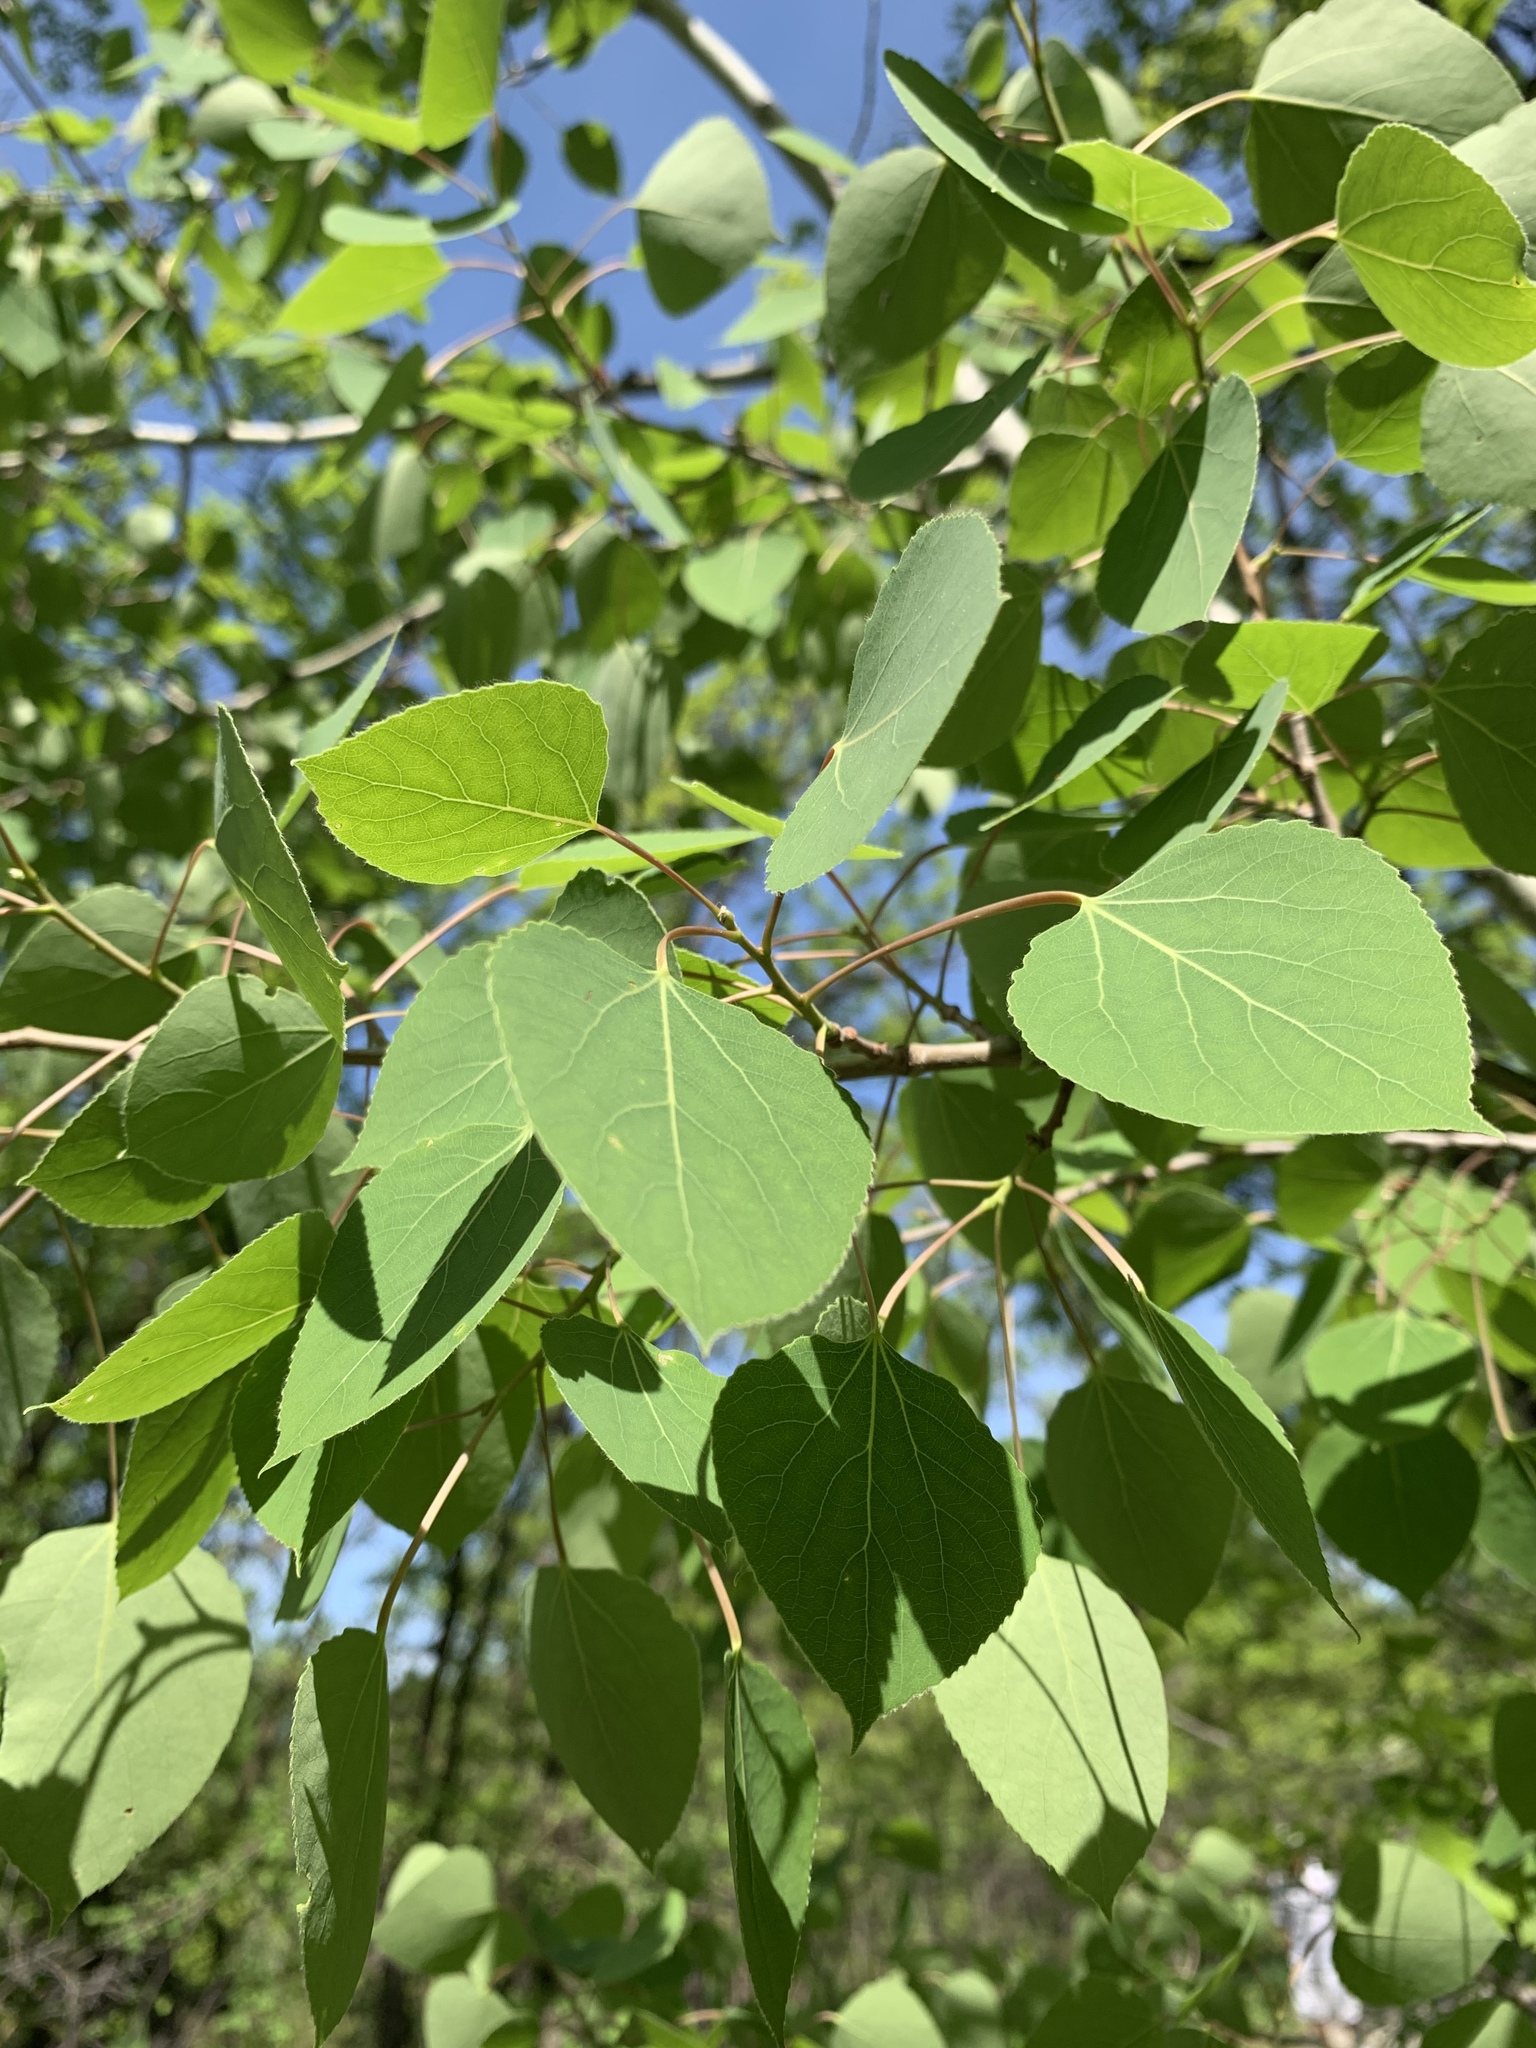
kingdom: Plantae
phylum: Tracheophyta
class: Magnoliopsida
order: Malpighiales
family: Salicaceae
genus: Populus
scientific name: Populus tremuloides
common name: Quaking aspen
